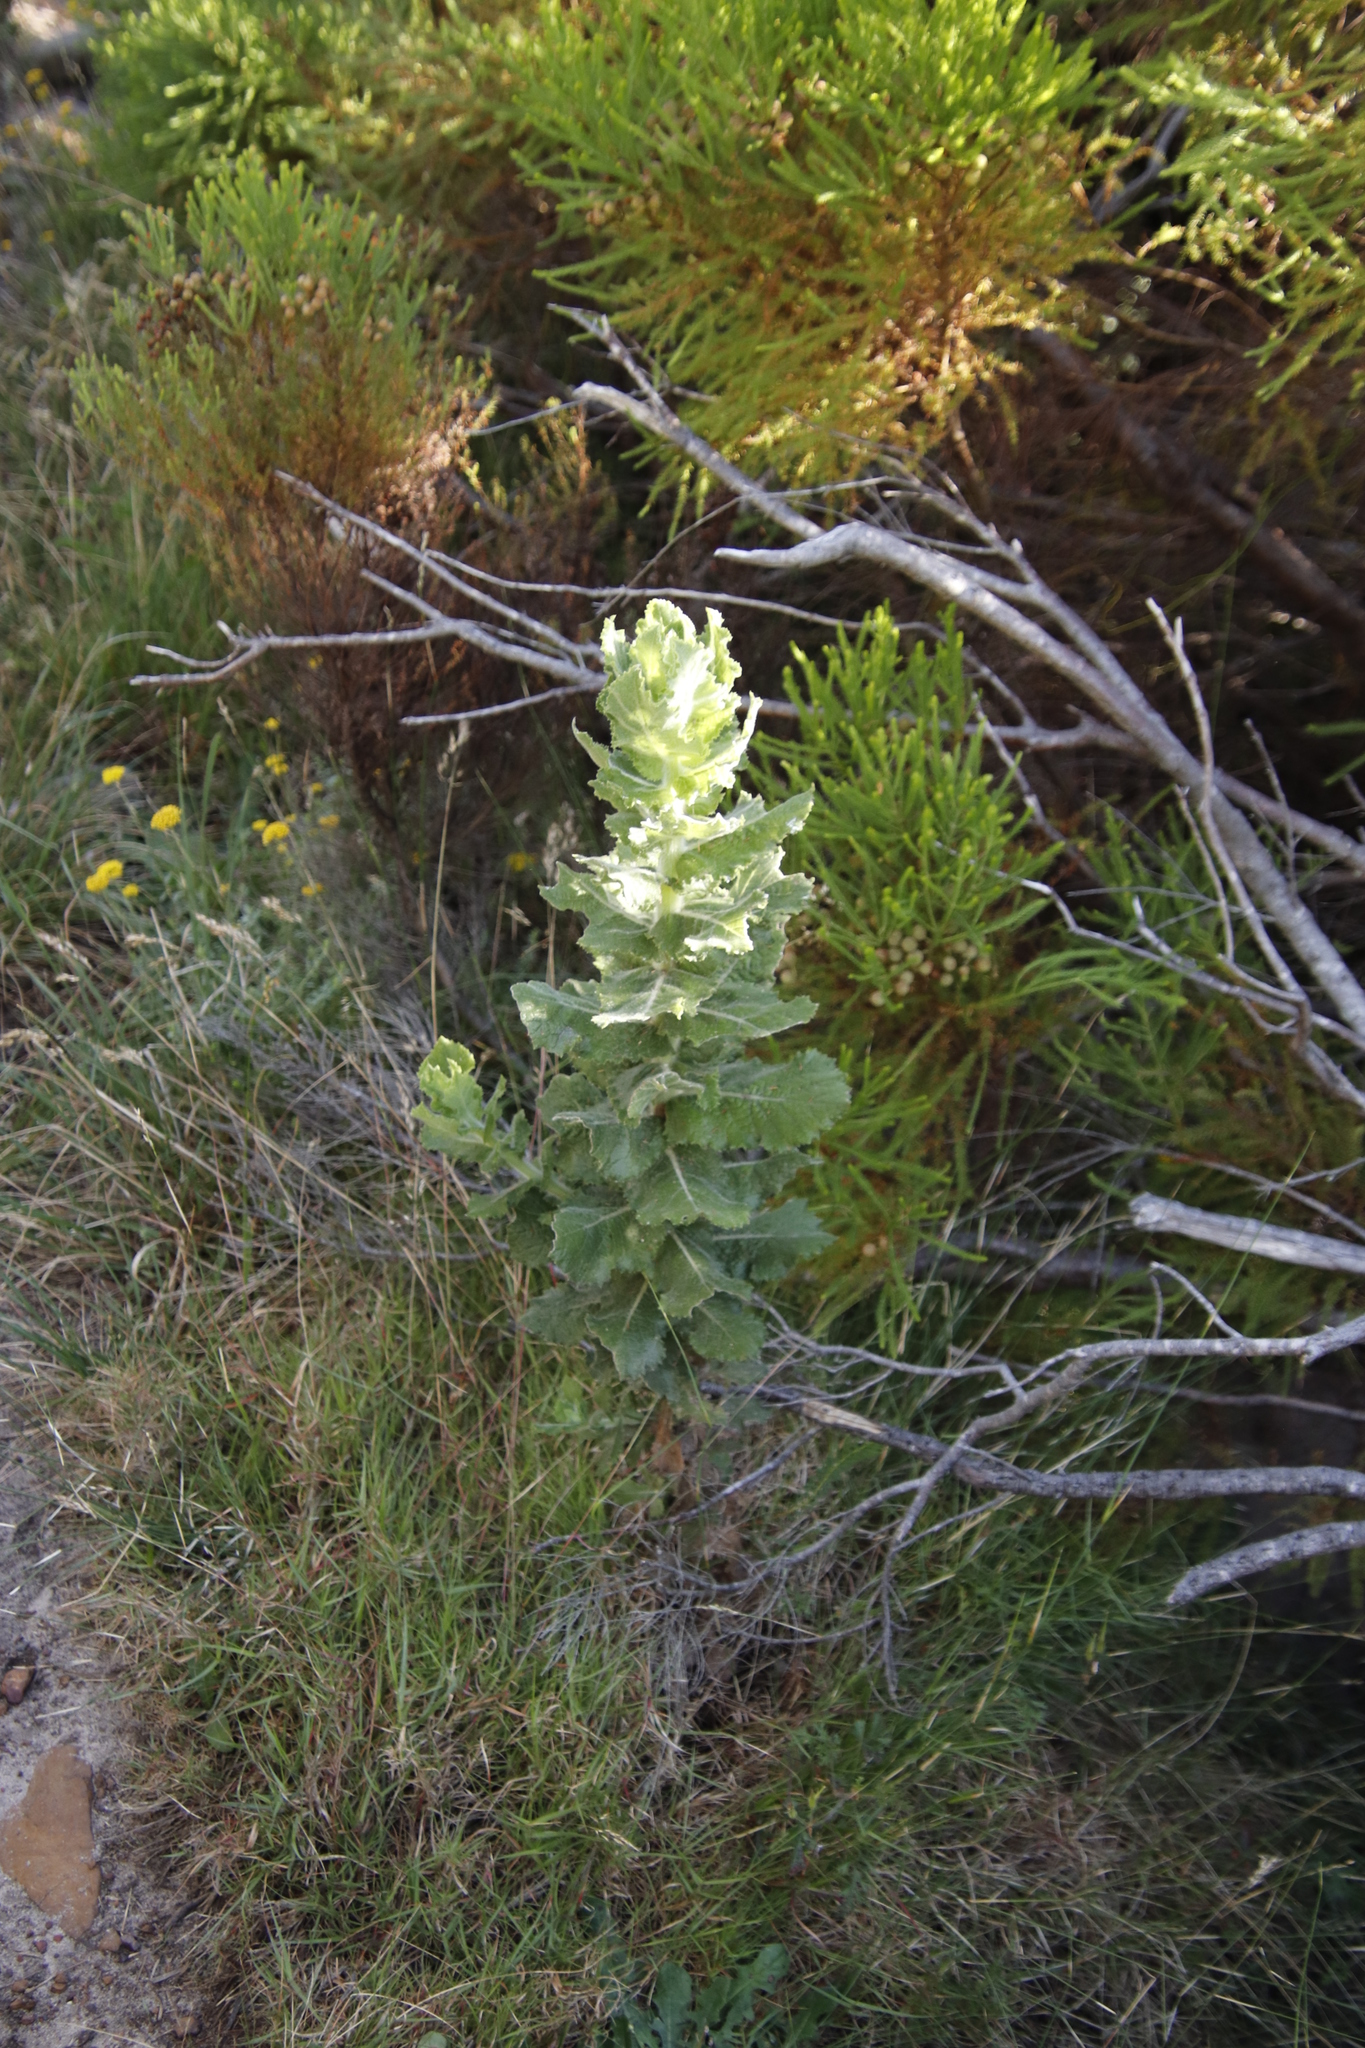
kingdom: Plantae
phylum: Tracheophyta
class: Magnoliopsida
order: Asterales
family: Asteraceae
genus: Senecio
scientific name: Senecio rigidus
